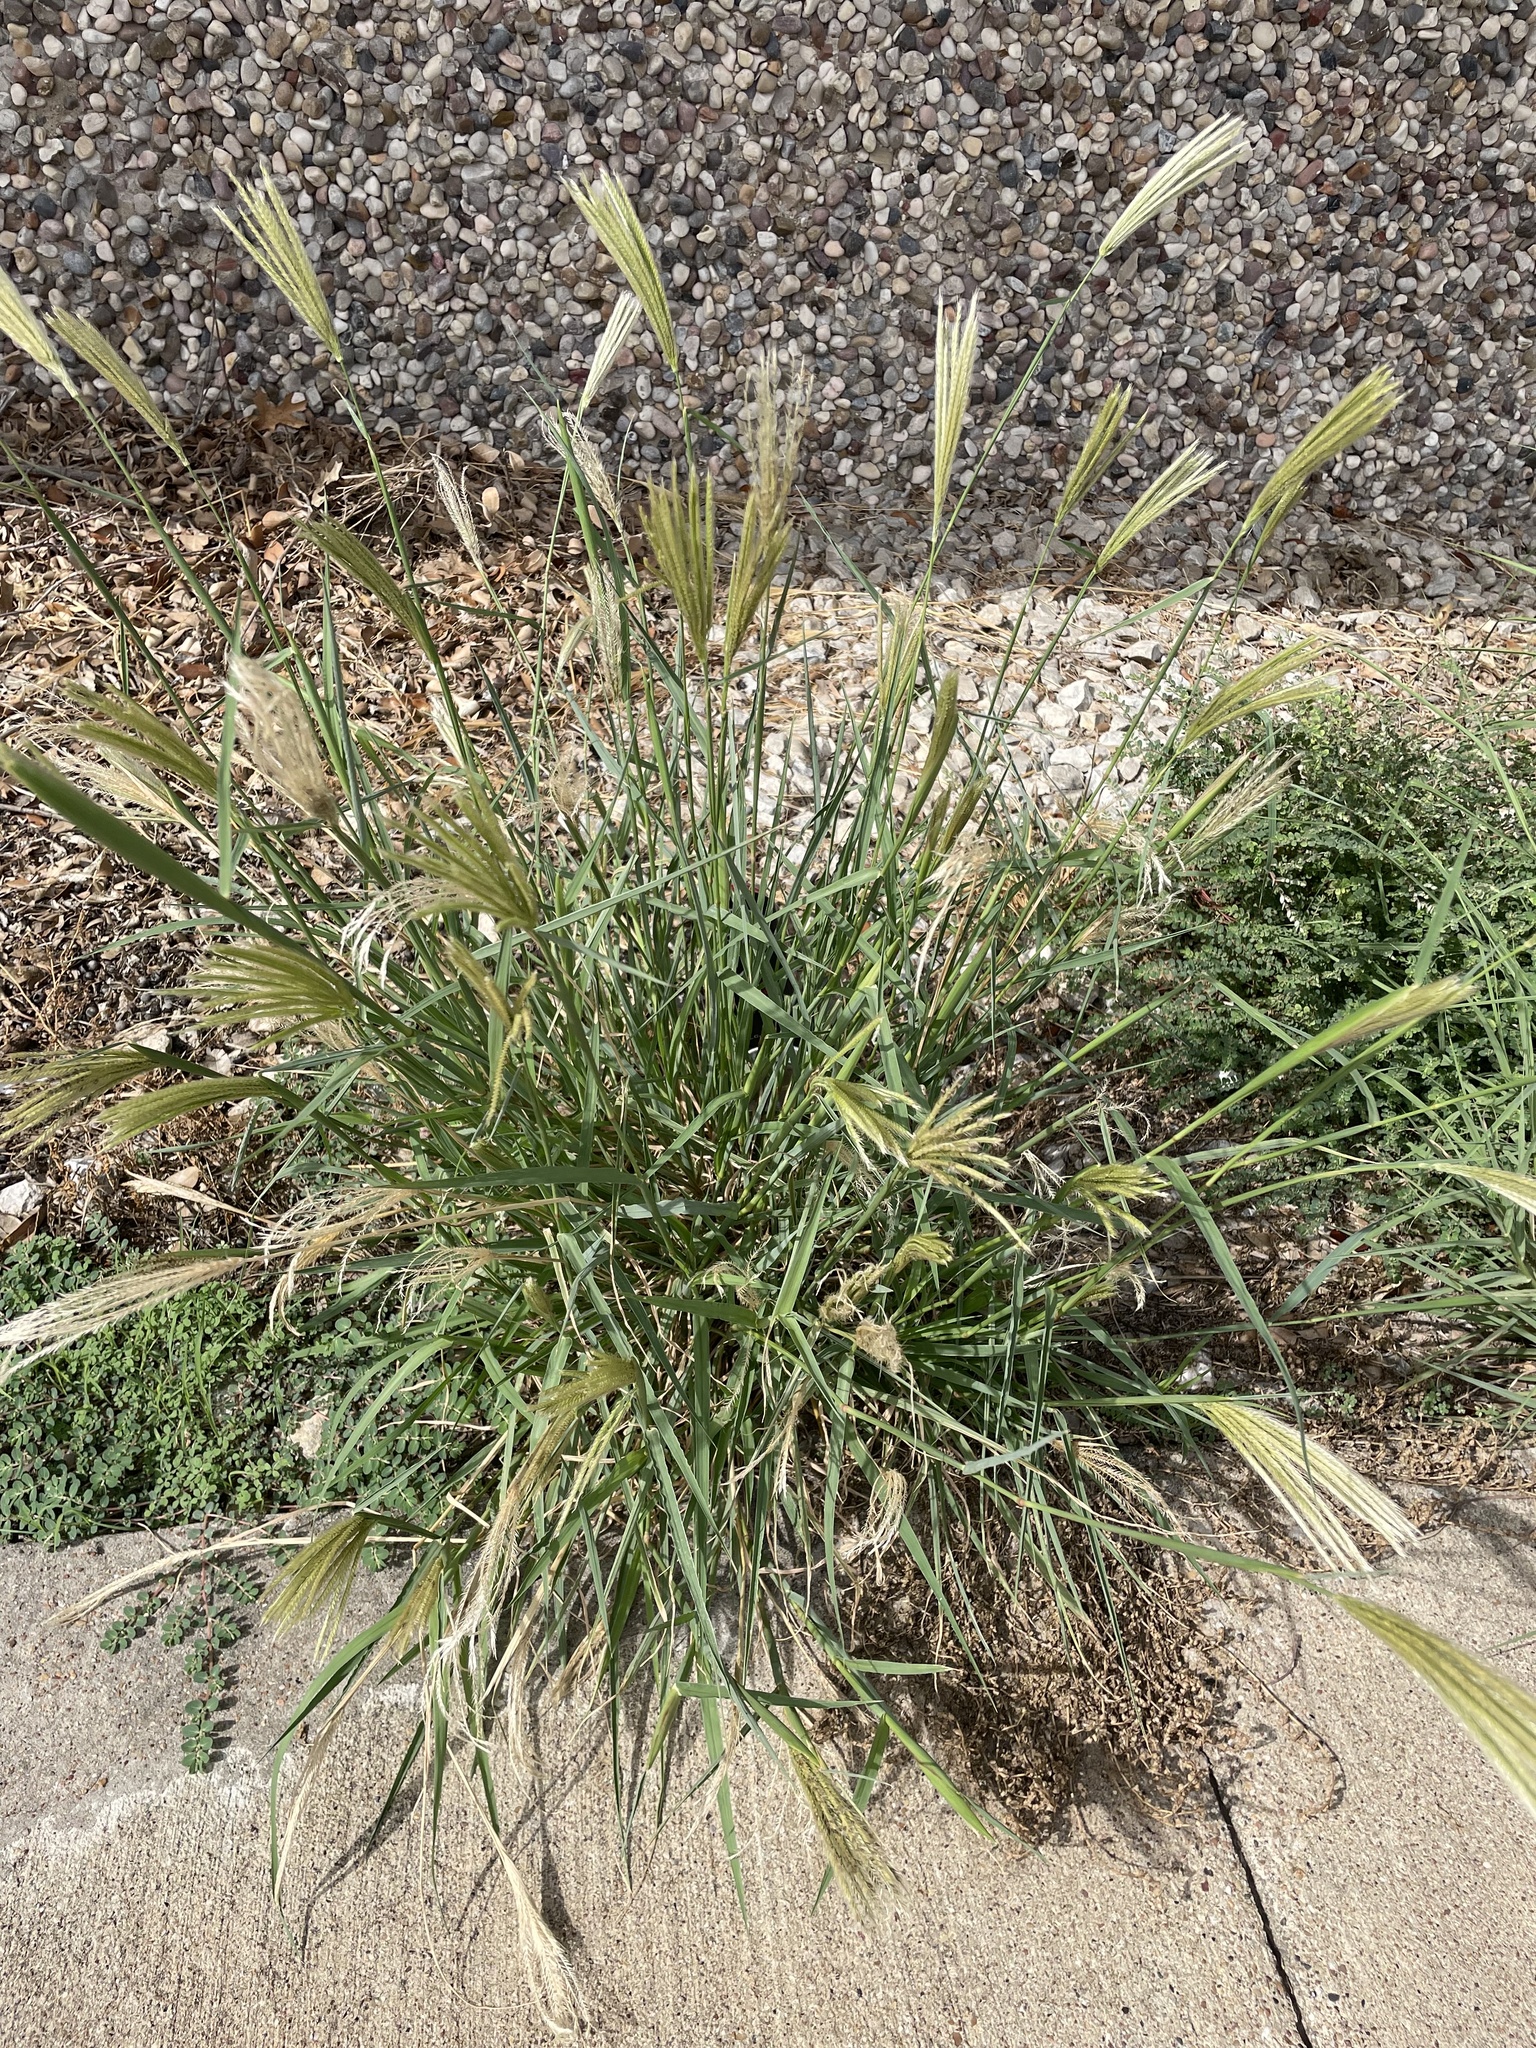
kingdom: Plantae
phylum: Tracheophyta
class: Liliopsida
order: Poales
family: Poaceae
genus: Chloris
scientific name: Chloris virgata
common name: Feathery rhodes-grass
